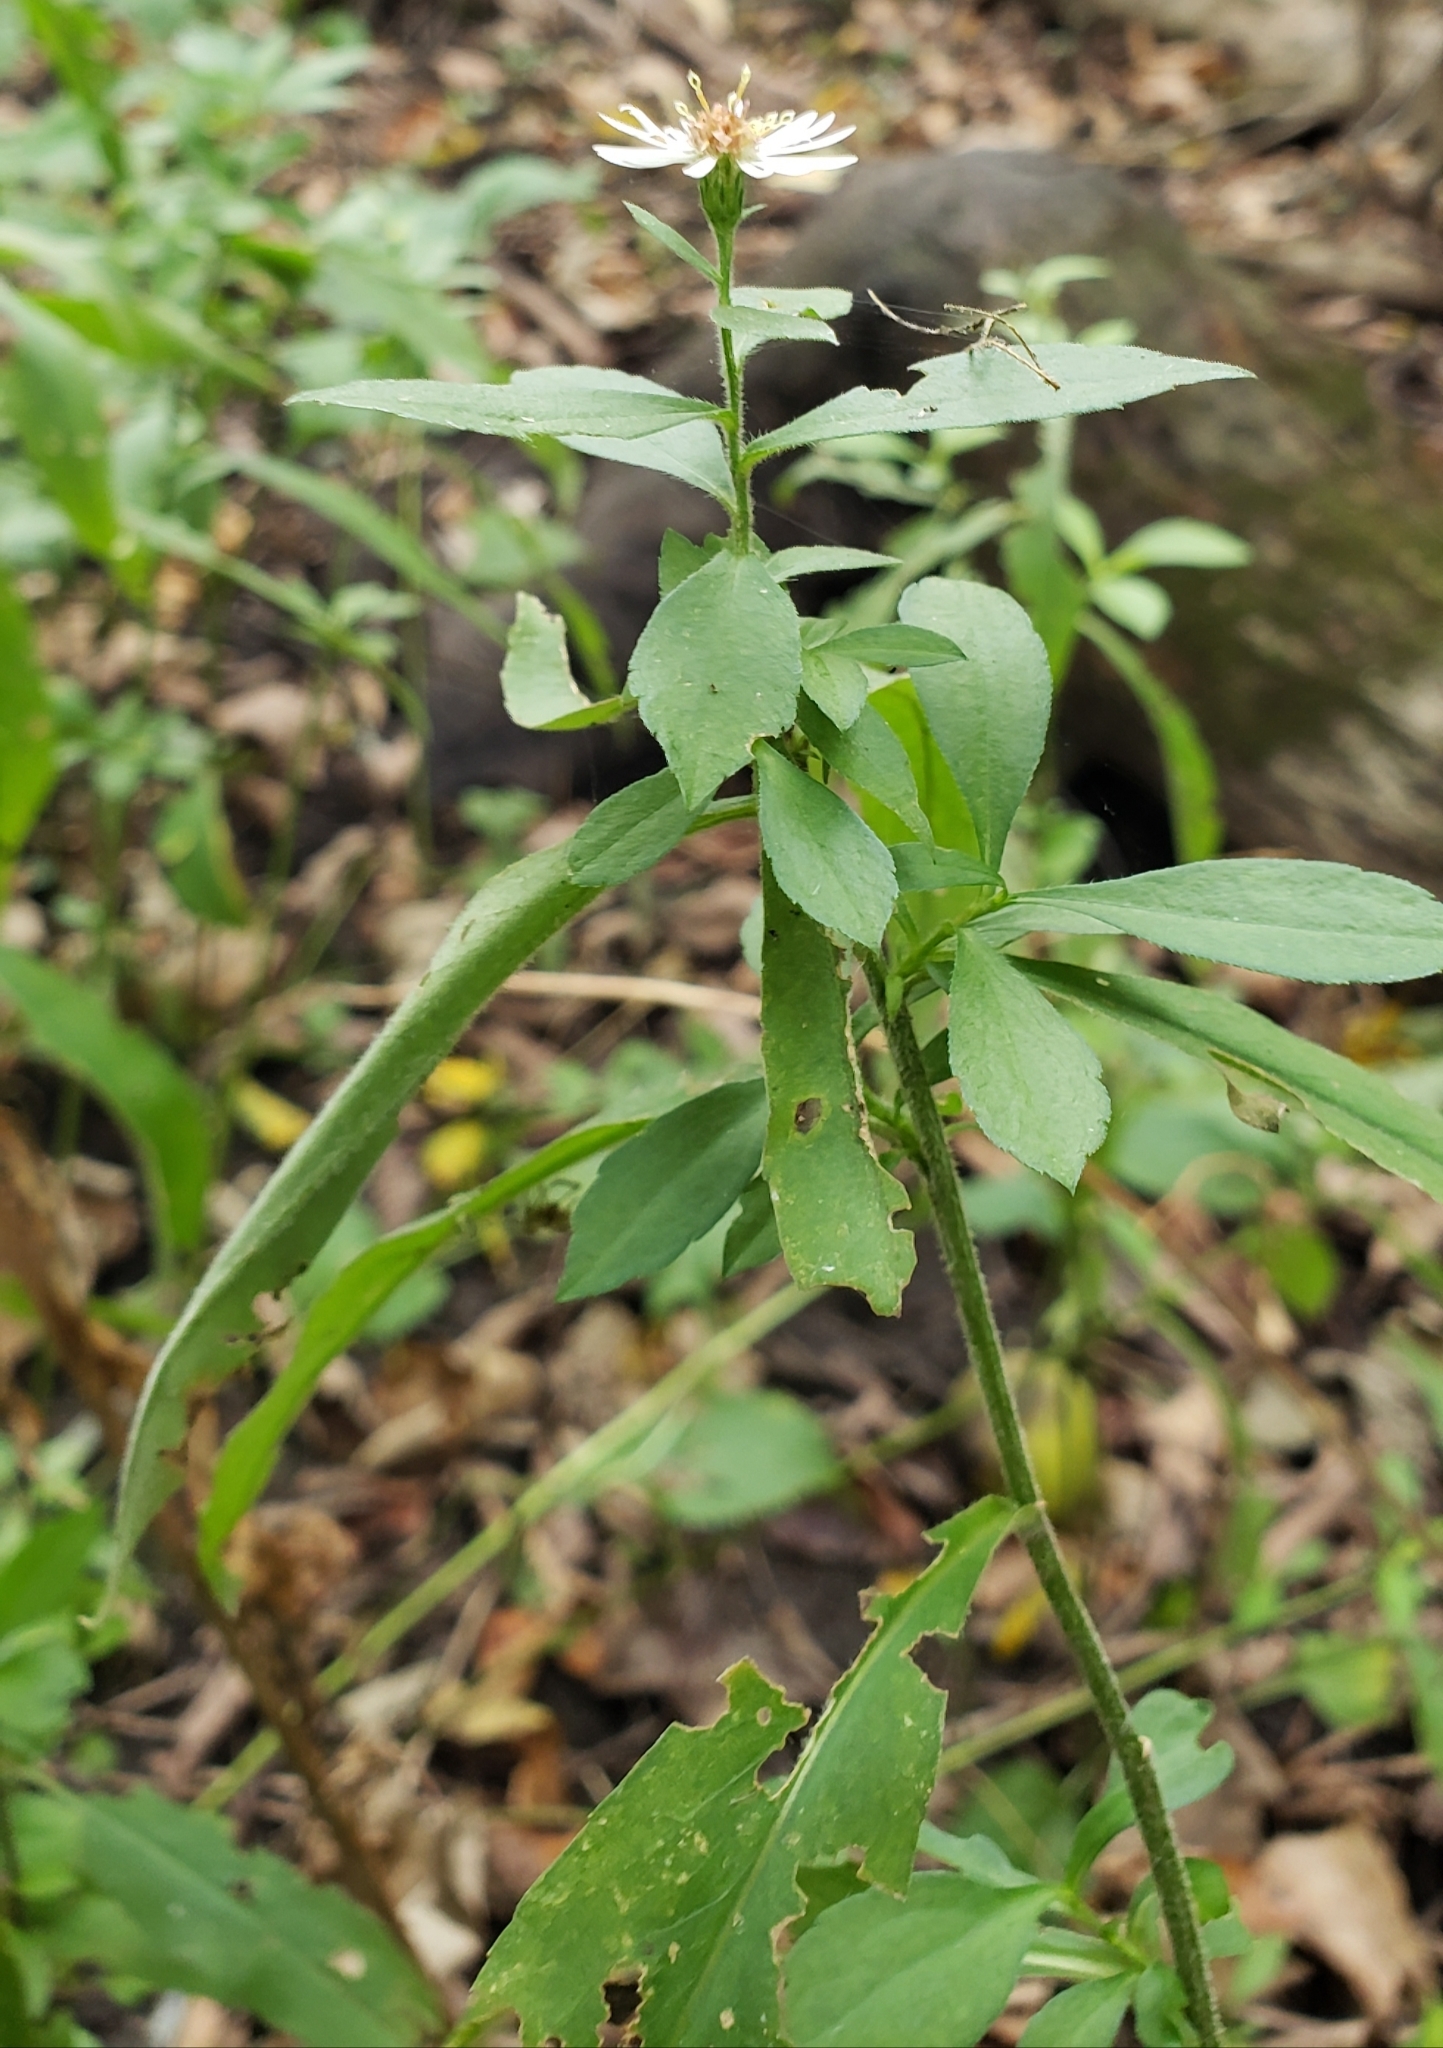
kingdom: Plantae
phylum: Tracheophyta
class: Magnoliopsida
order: Asterales
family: Asteraceae
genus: Symphyotrichum
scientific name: Symphyotrichum ontarionis
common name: Bottomland aster
